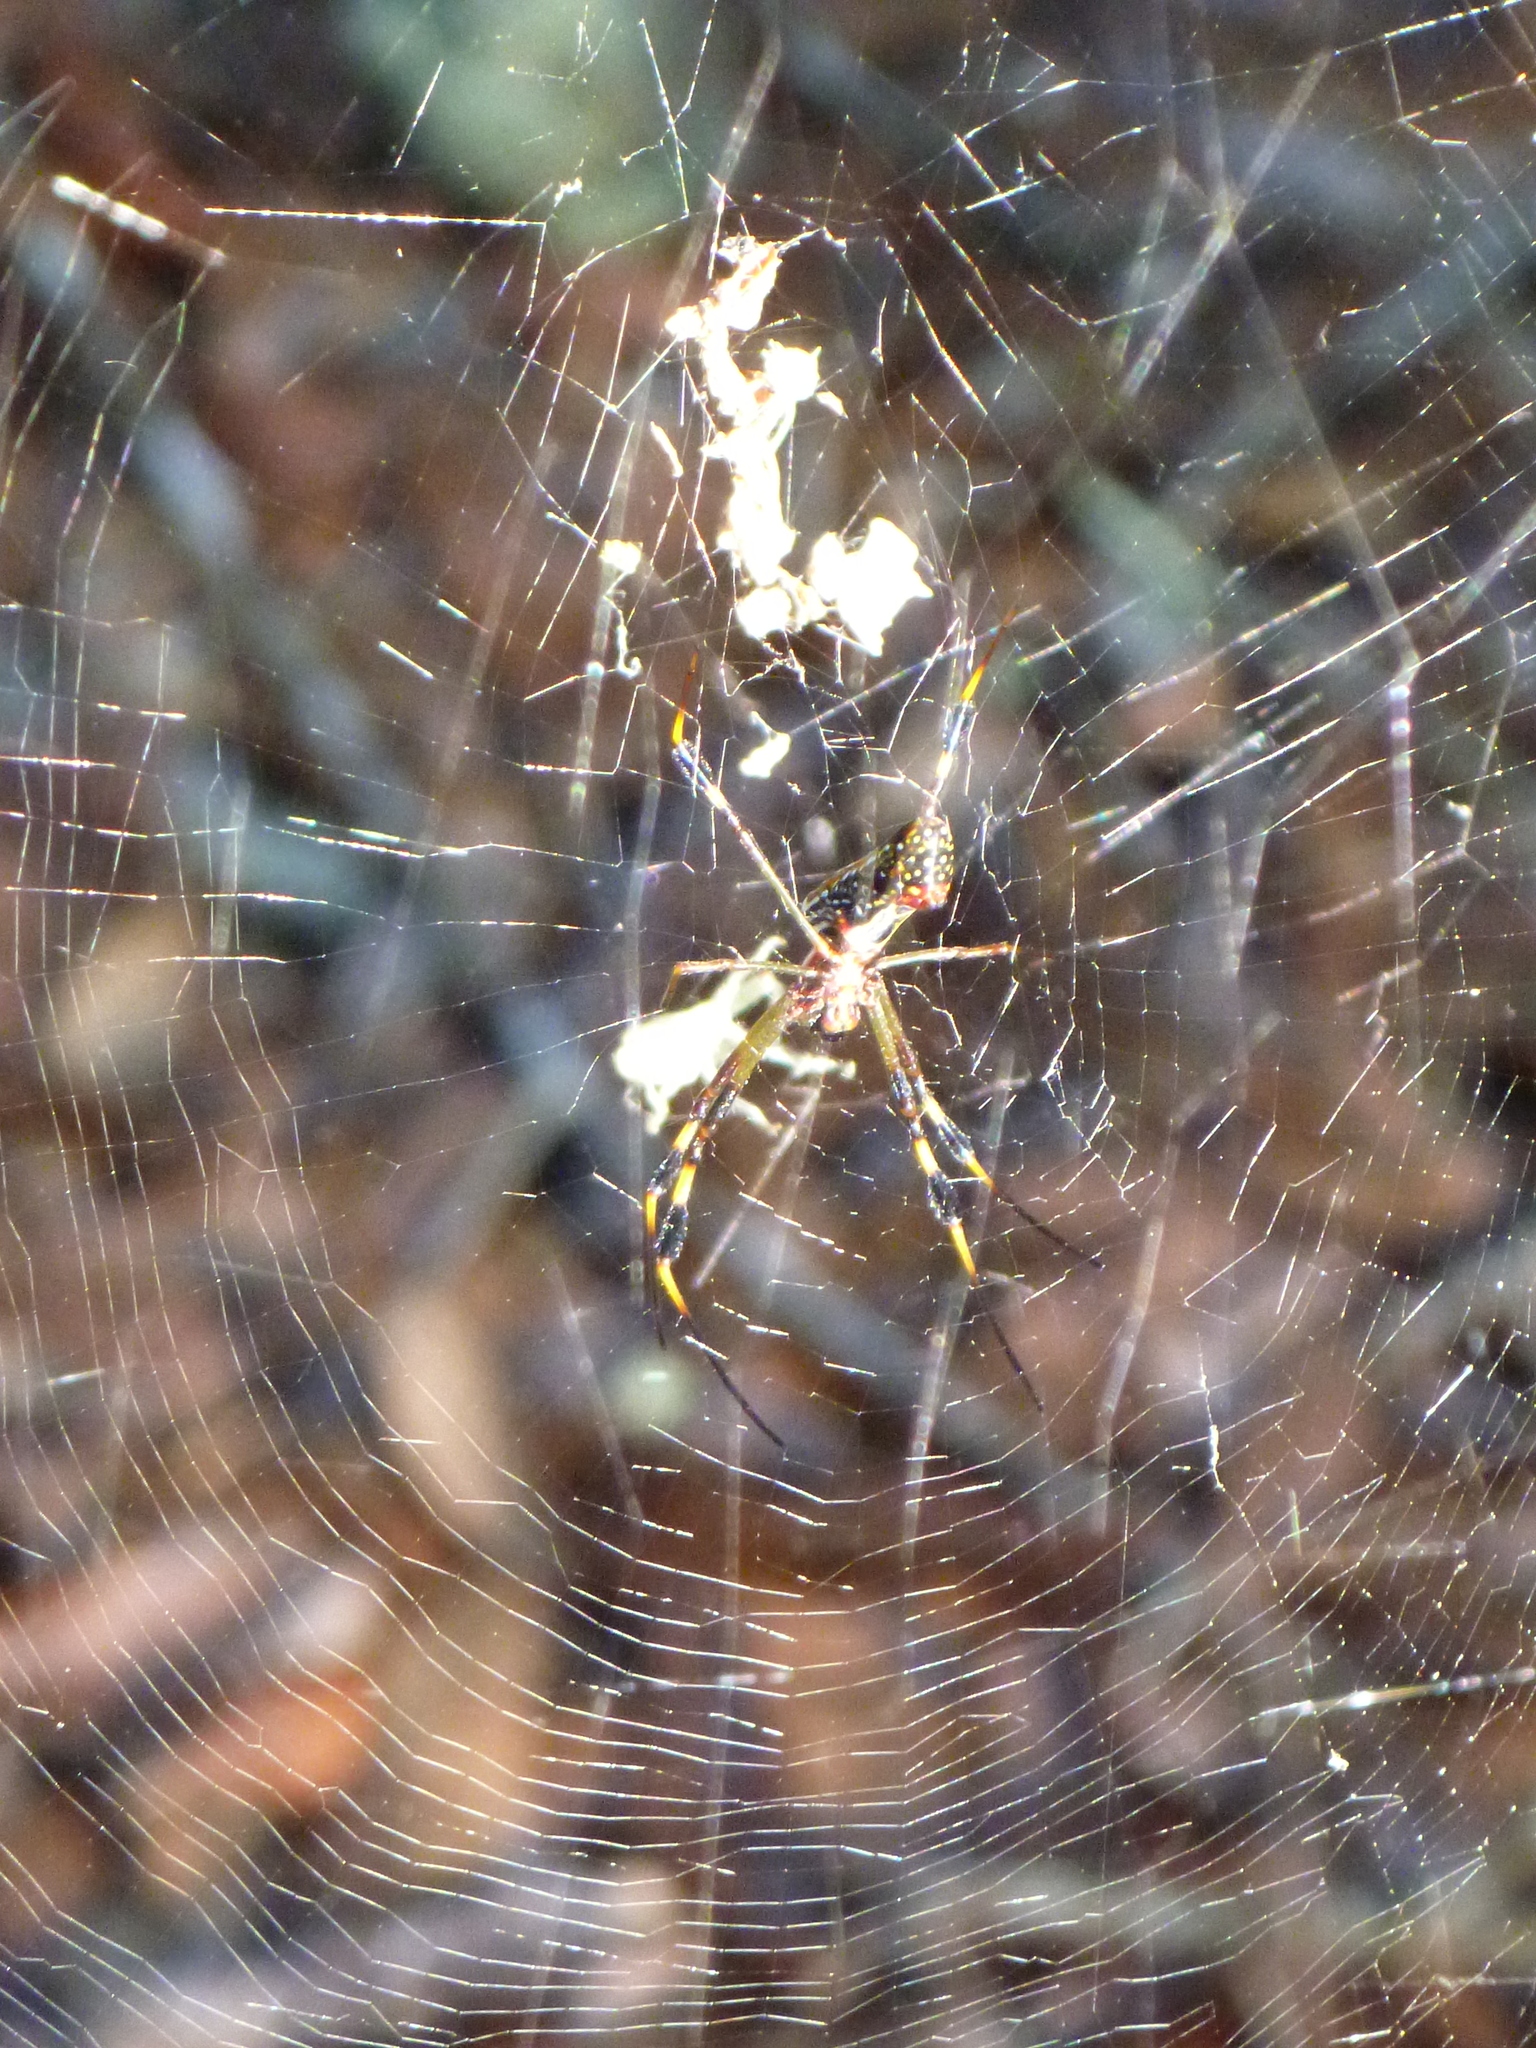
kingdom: Animalia
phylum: Arthropoda
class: Arachnida
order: Araneae
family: Araneidae
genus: Trichonephila
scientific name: Trichonephila clavipes
